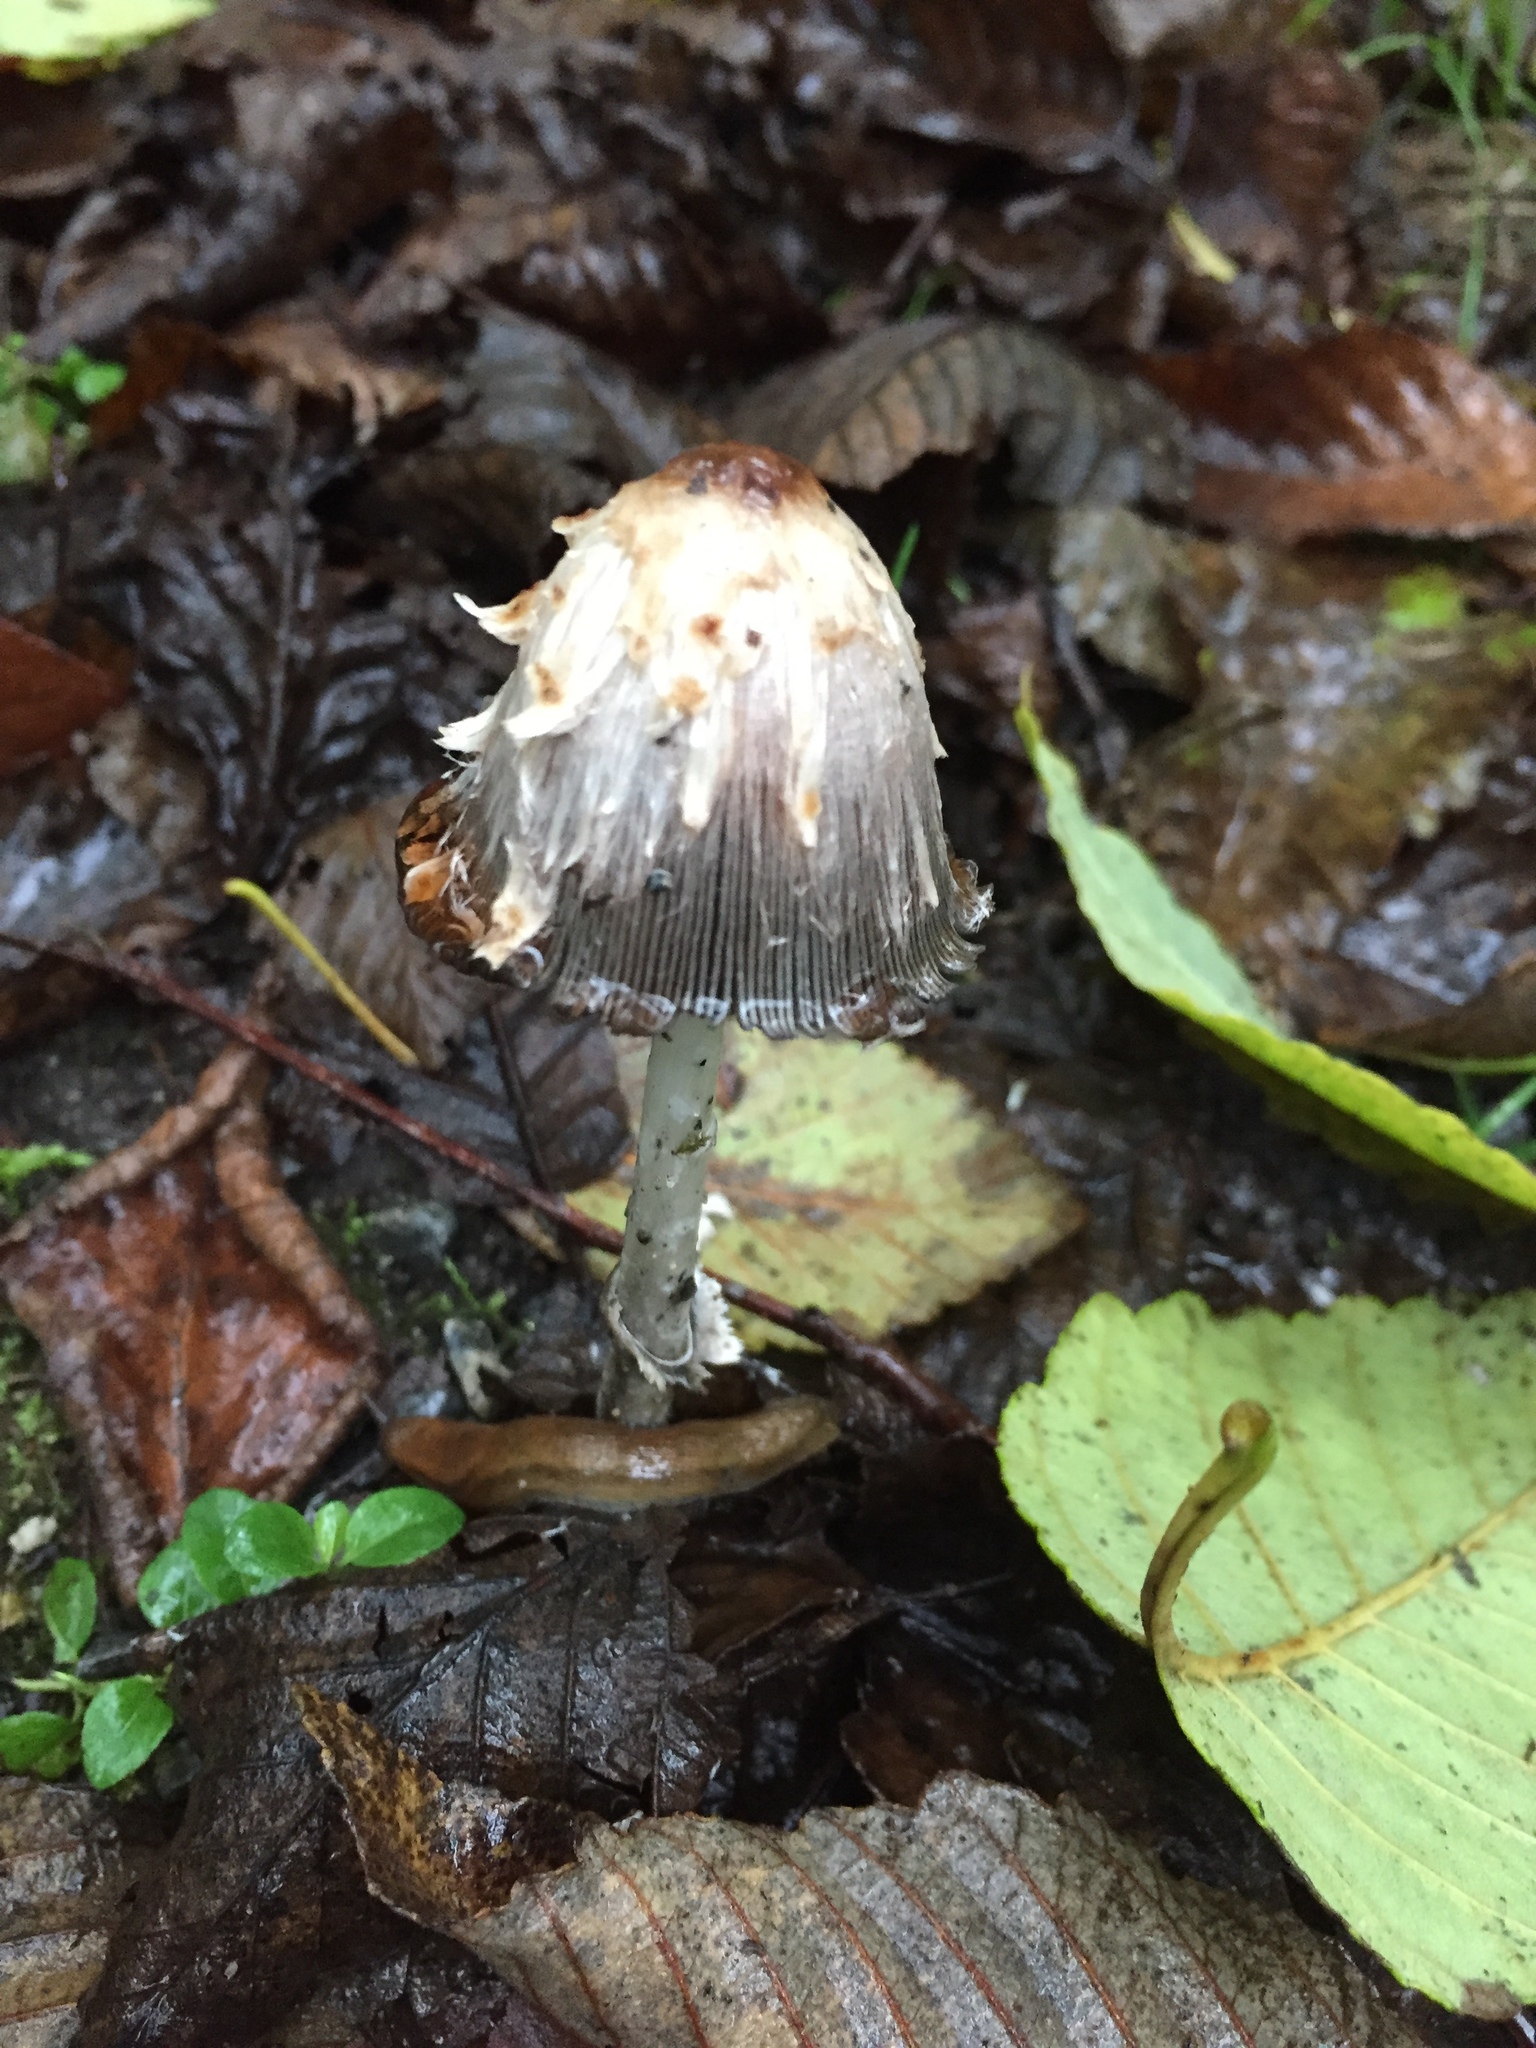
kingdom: Fungi
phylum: Basidiomycota
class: Agaricomycetes
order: Agaricales
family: Agaricaceae
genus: Coprinus
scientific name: Coprinus comatus
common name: Lawyer's wig
